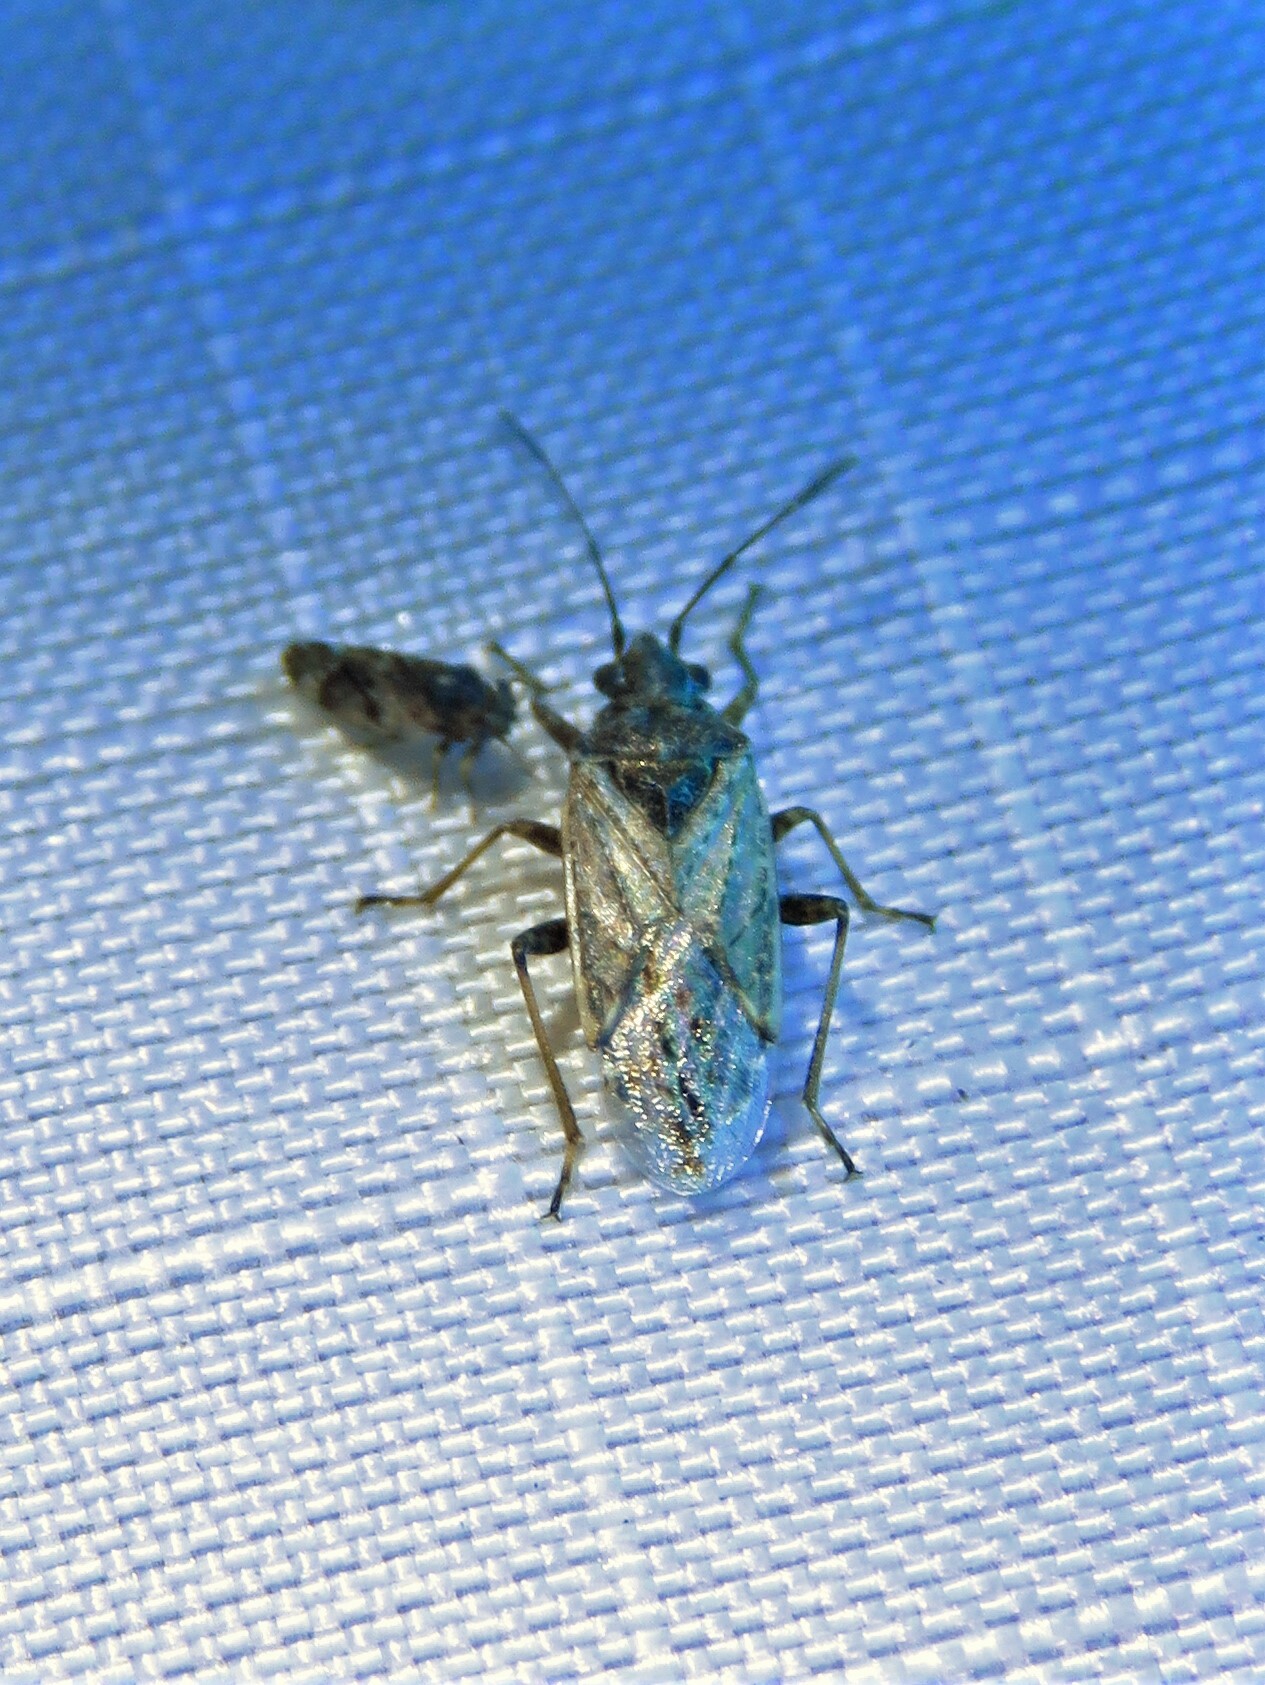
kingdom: Animalia
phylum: Arthropoda
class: Insecta
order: Hemiptera
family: Lygaeidae
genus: Xyonysius
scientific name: Xyonysius californicus
